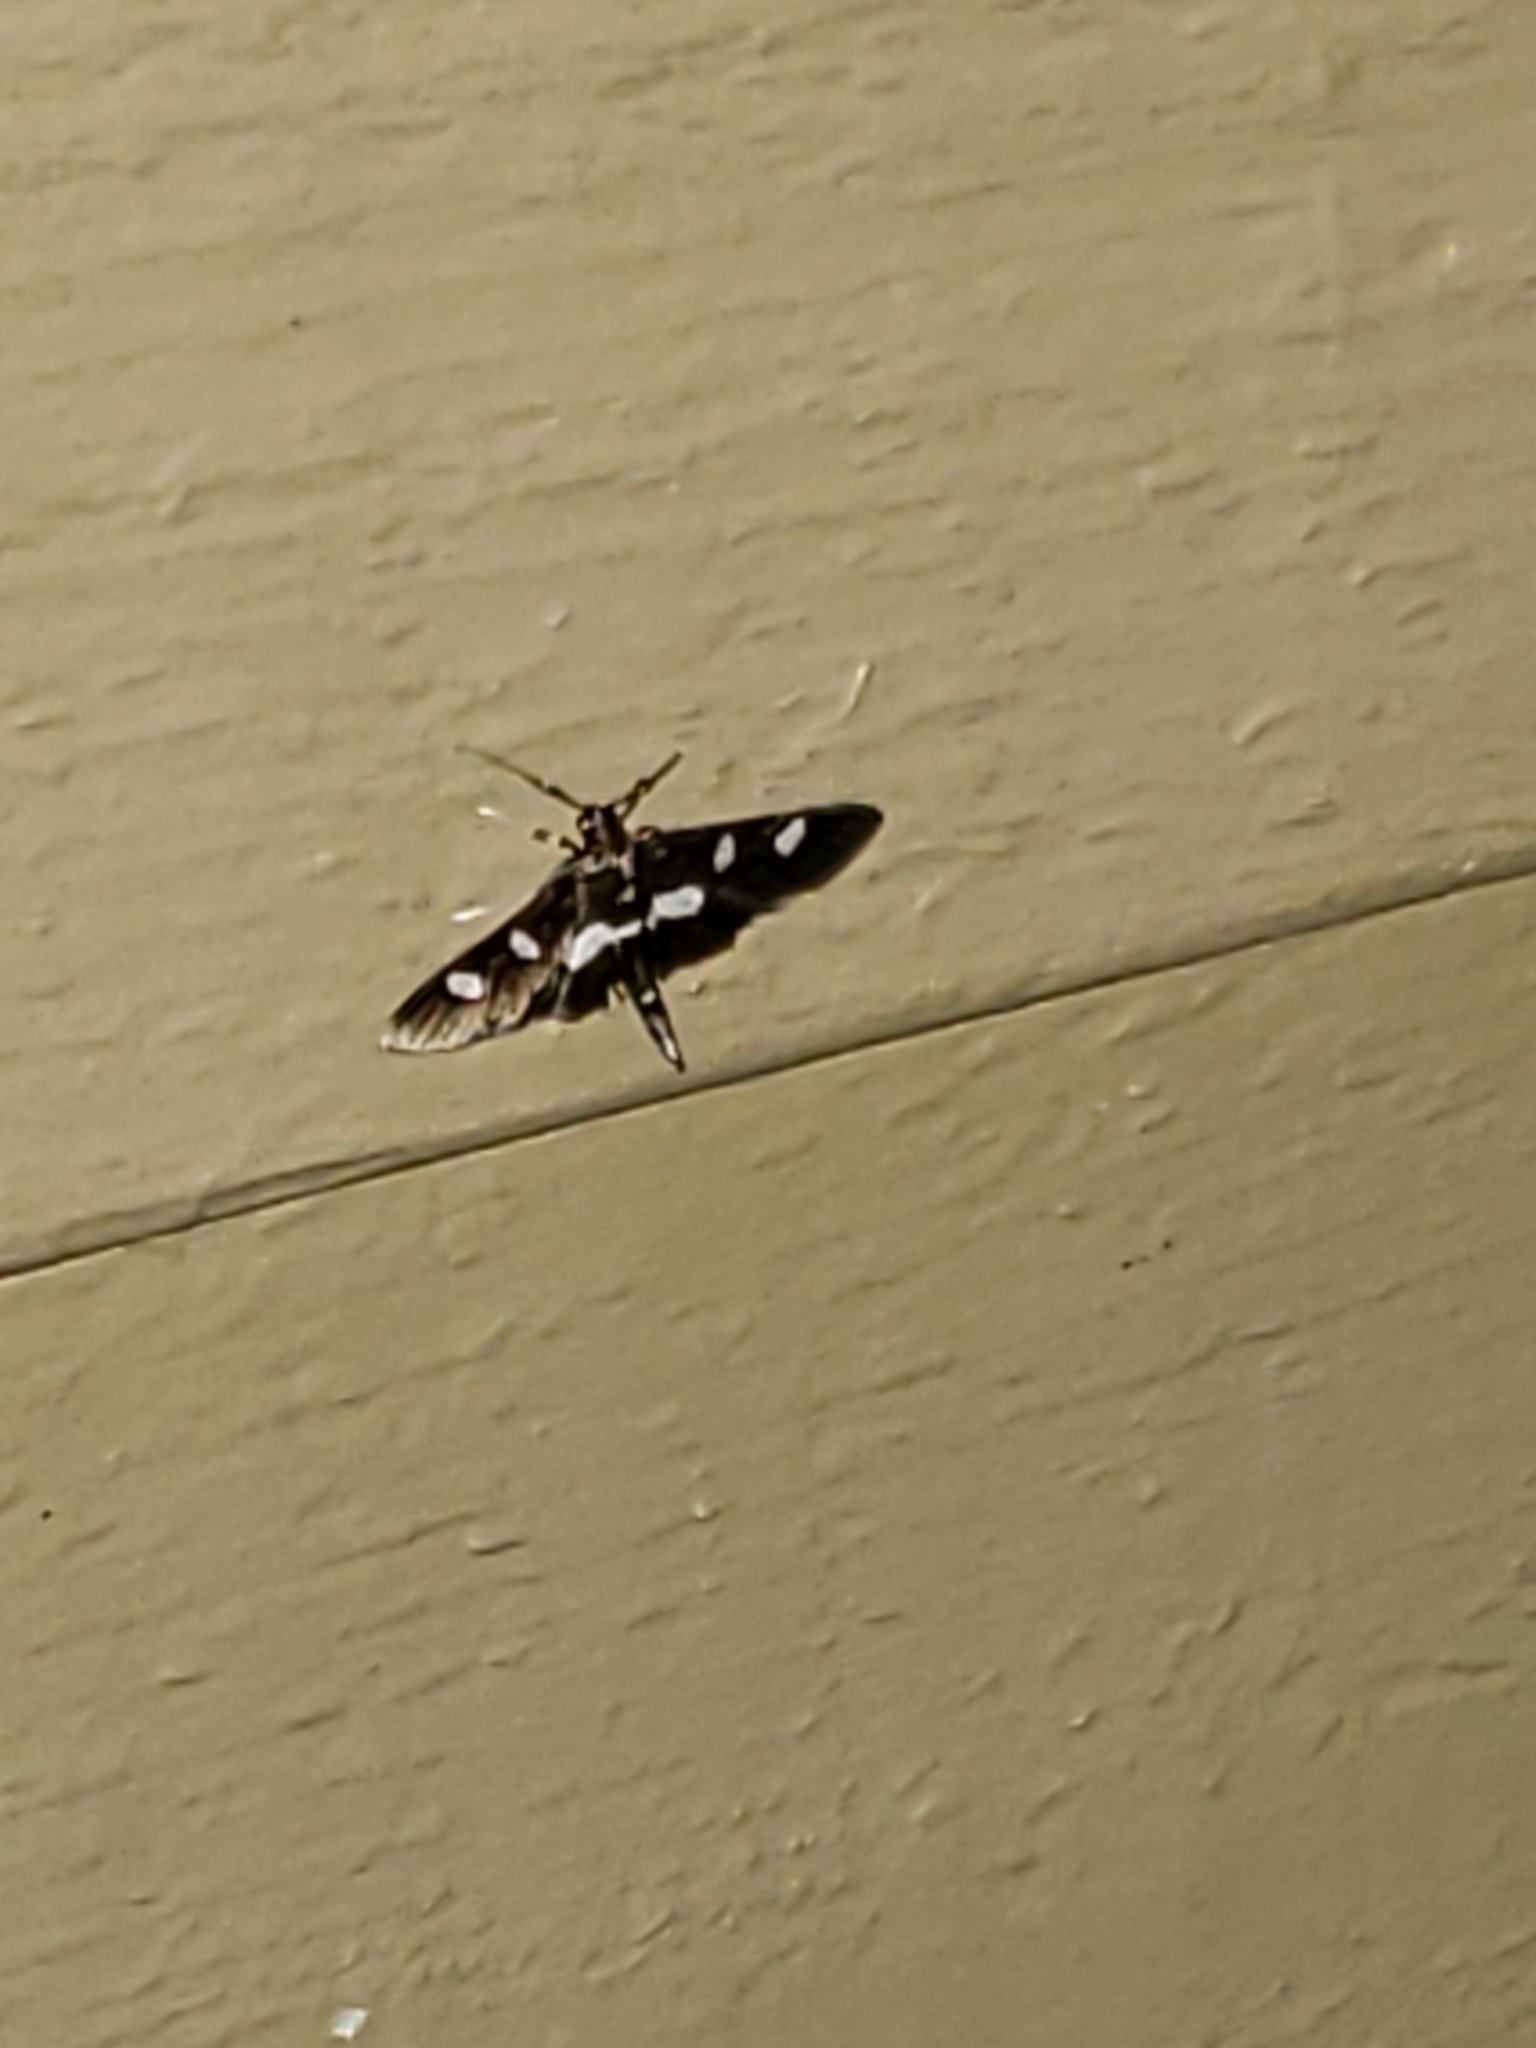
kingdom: Animalia
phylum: Arthropoda
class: Insecta
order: Lepidoptera
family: Crambidae
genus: Desmia
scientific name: Desmia
